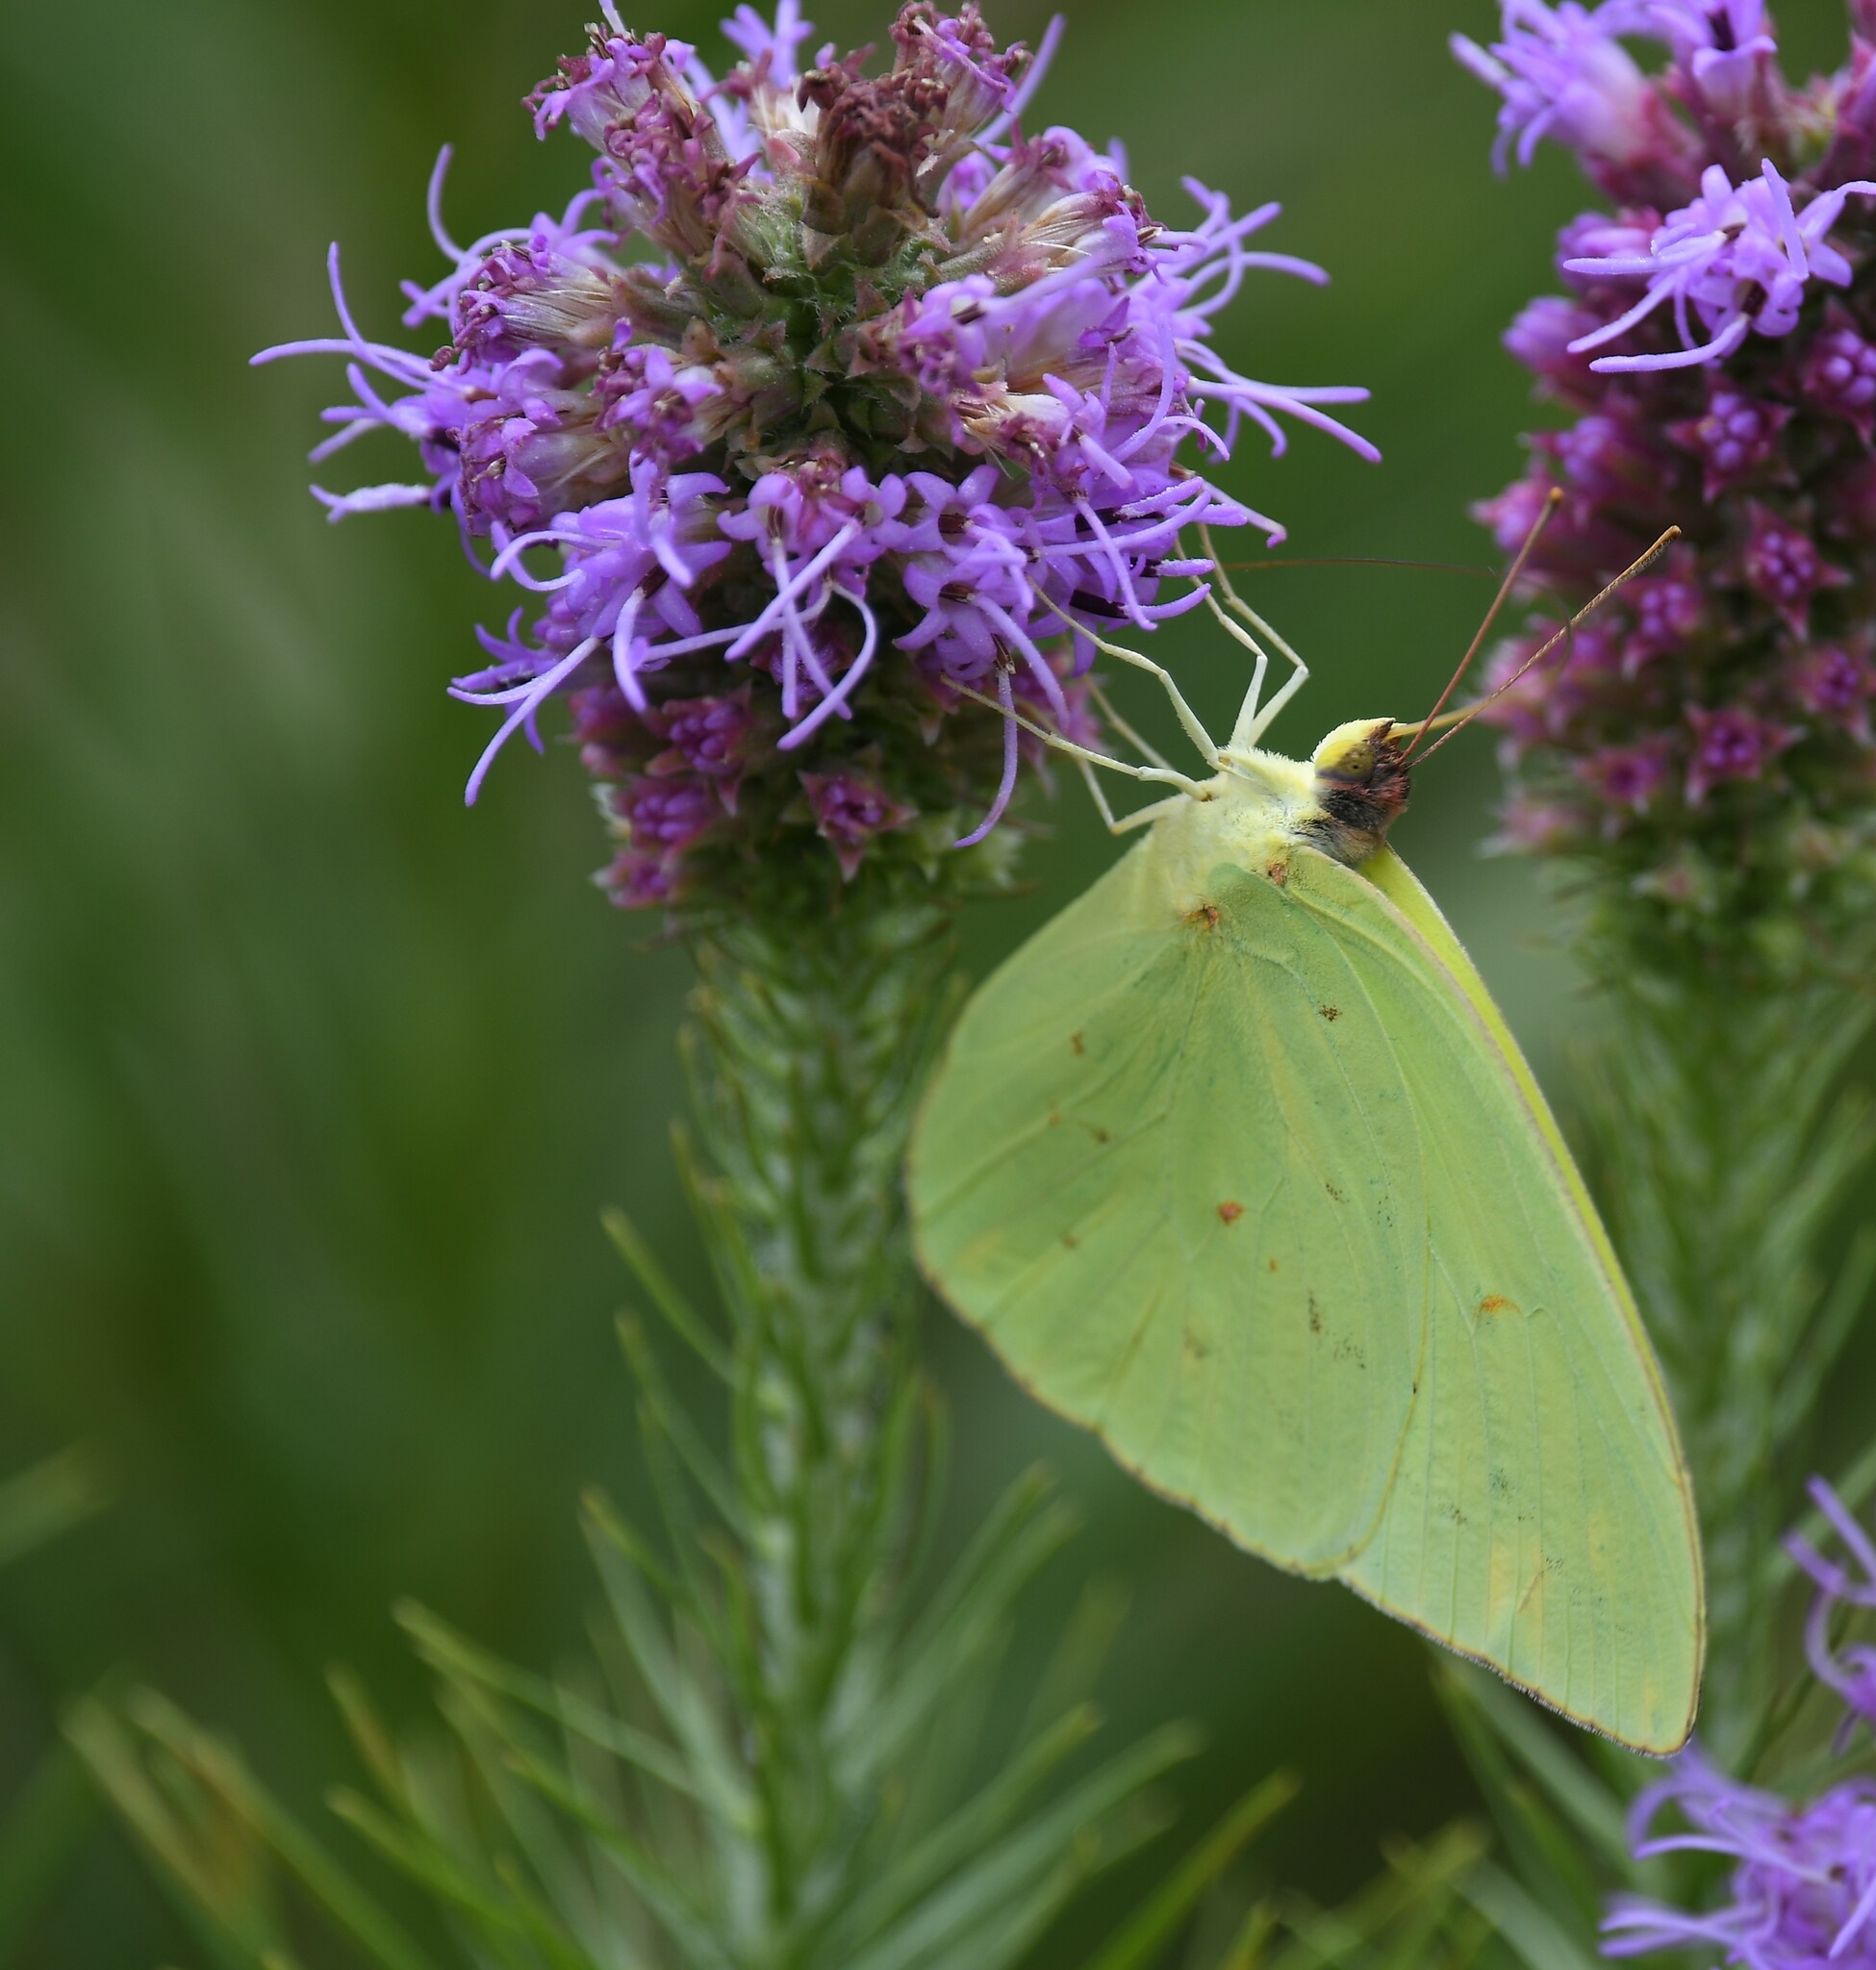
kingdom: Animalia
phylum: Arthropoda
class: Insecta
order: Lepidoptera
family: Pieridae
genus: Phoebis
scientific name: Phoebis sennae
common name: Cloudless sulphur
